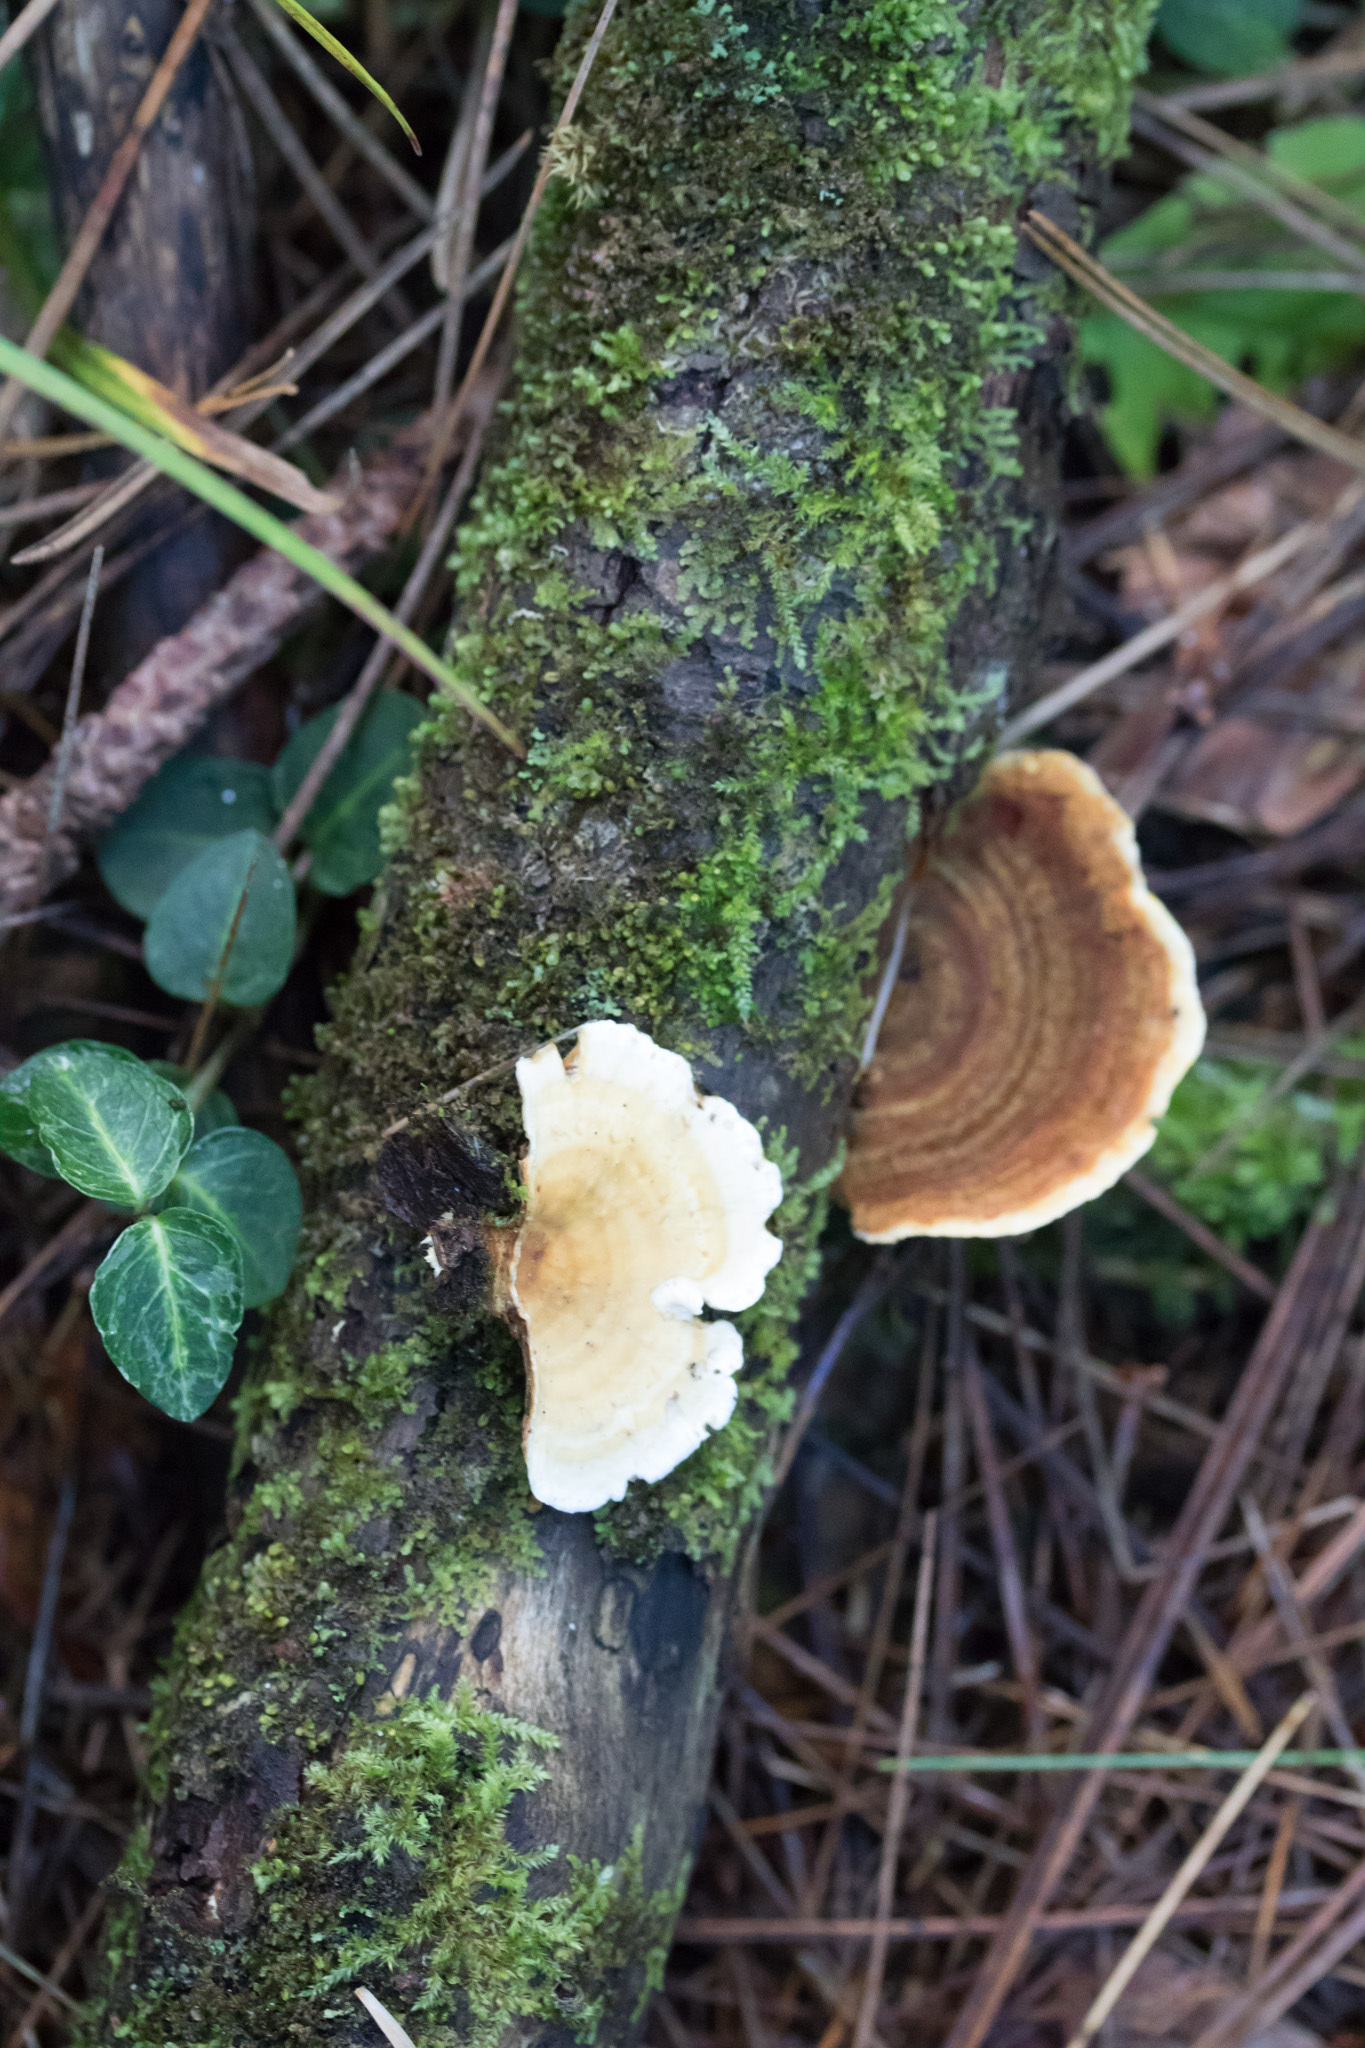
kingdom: Fungi
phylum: Basidiomycota
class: Agaricomycetes
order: Russulales
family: Stereaceae
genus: Stereum
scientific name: Stereum ostrea
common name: False turkeytail
